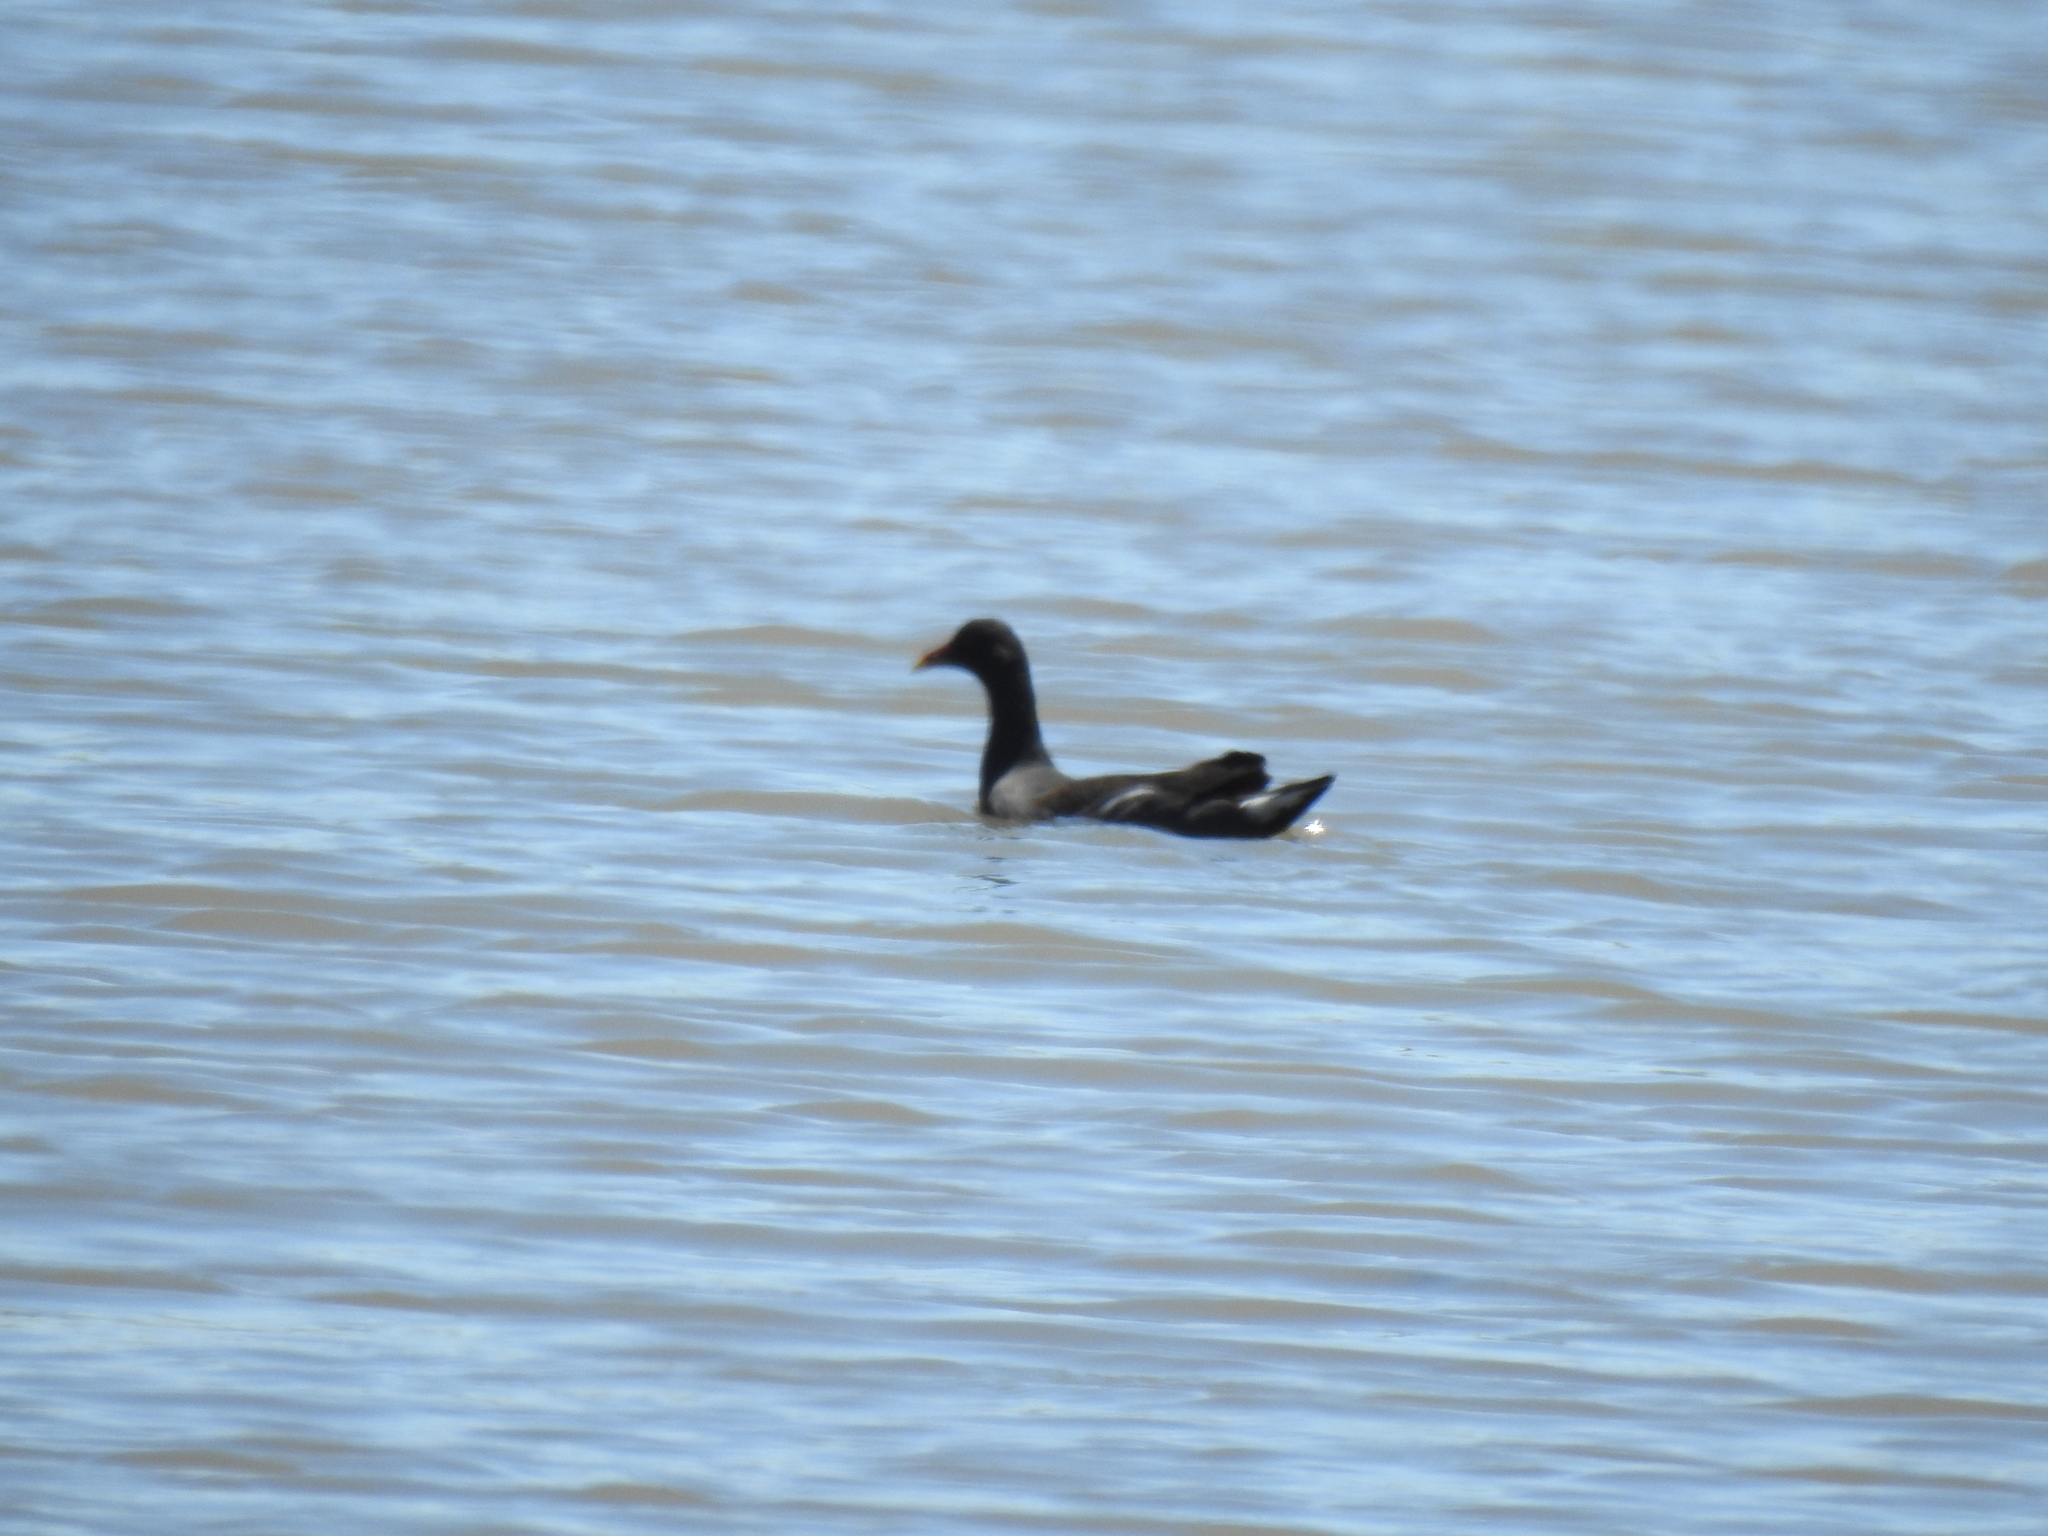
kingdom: Animalia
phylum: Chordata
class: Aves
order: Gruiformes
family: Rallidae
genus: Gallinula
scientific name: Gallinula chloropus
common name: Common moorhen
